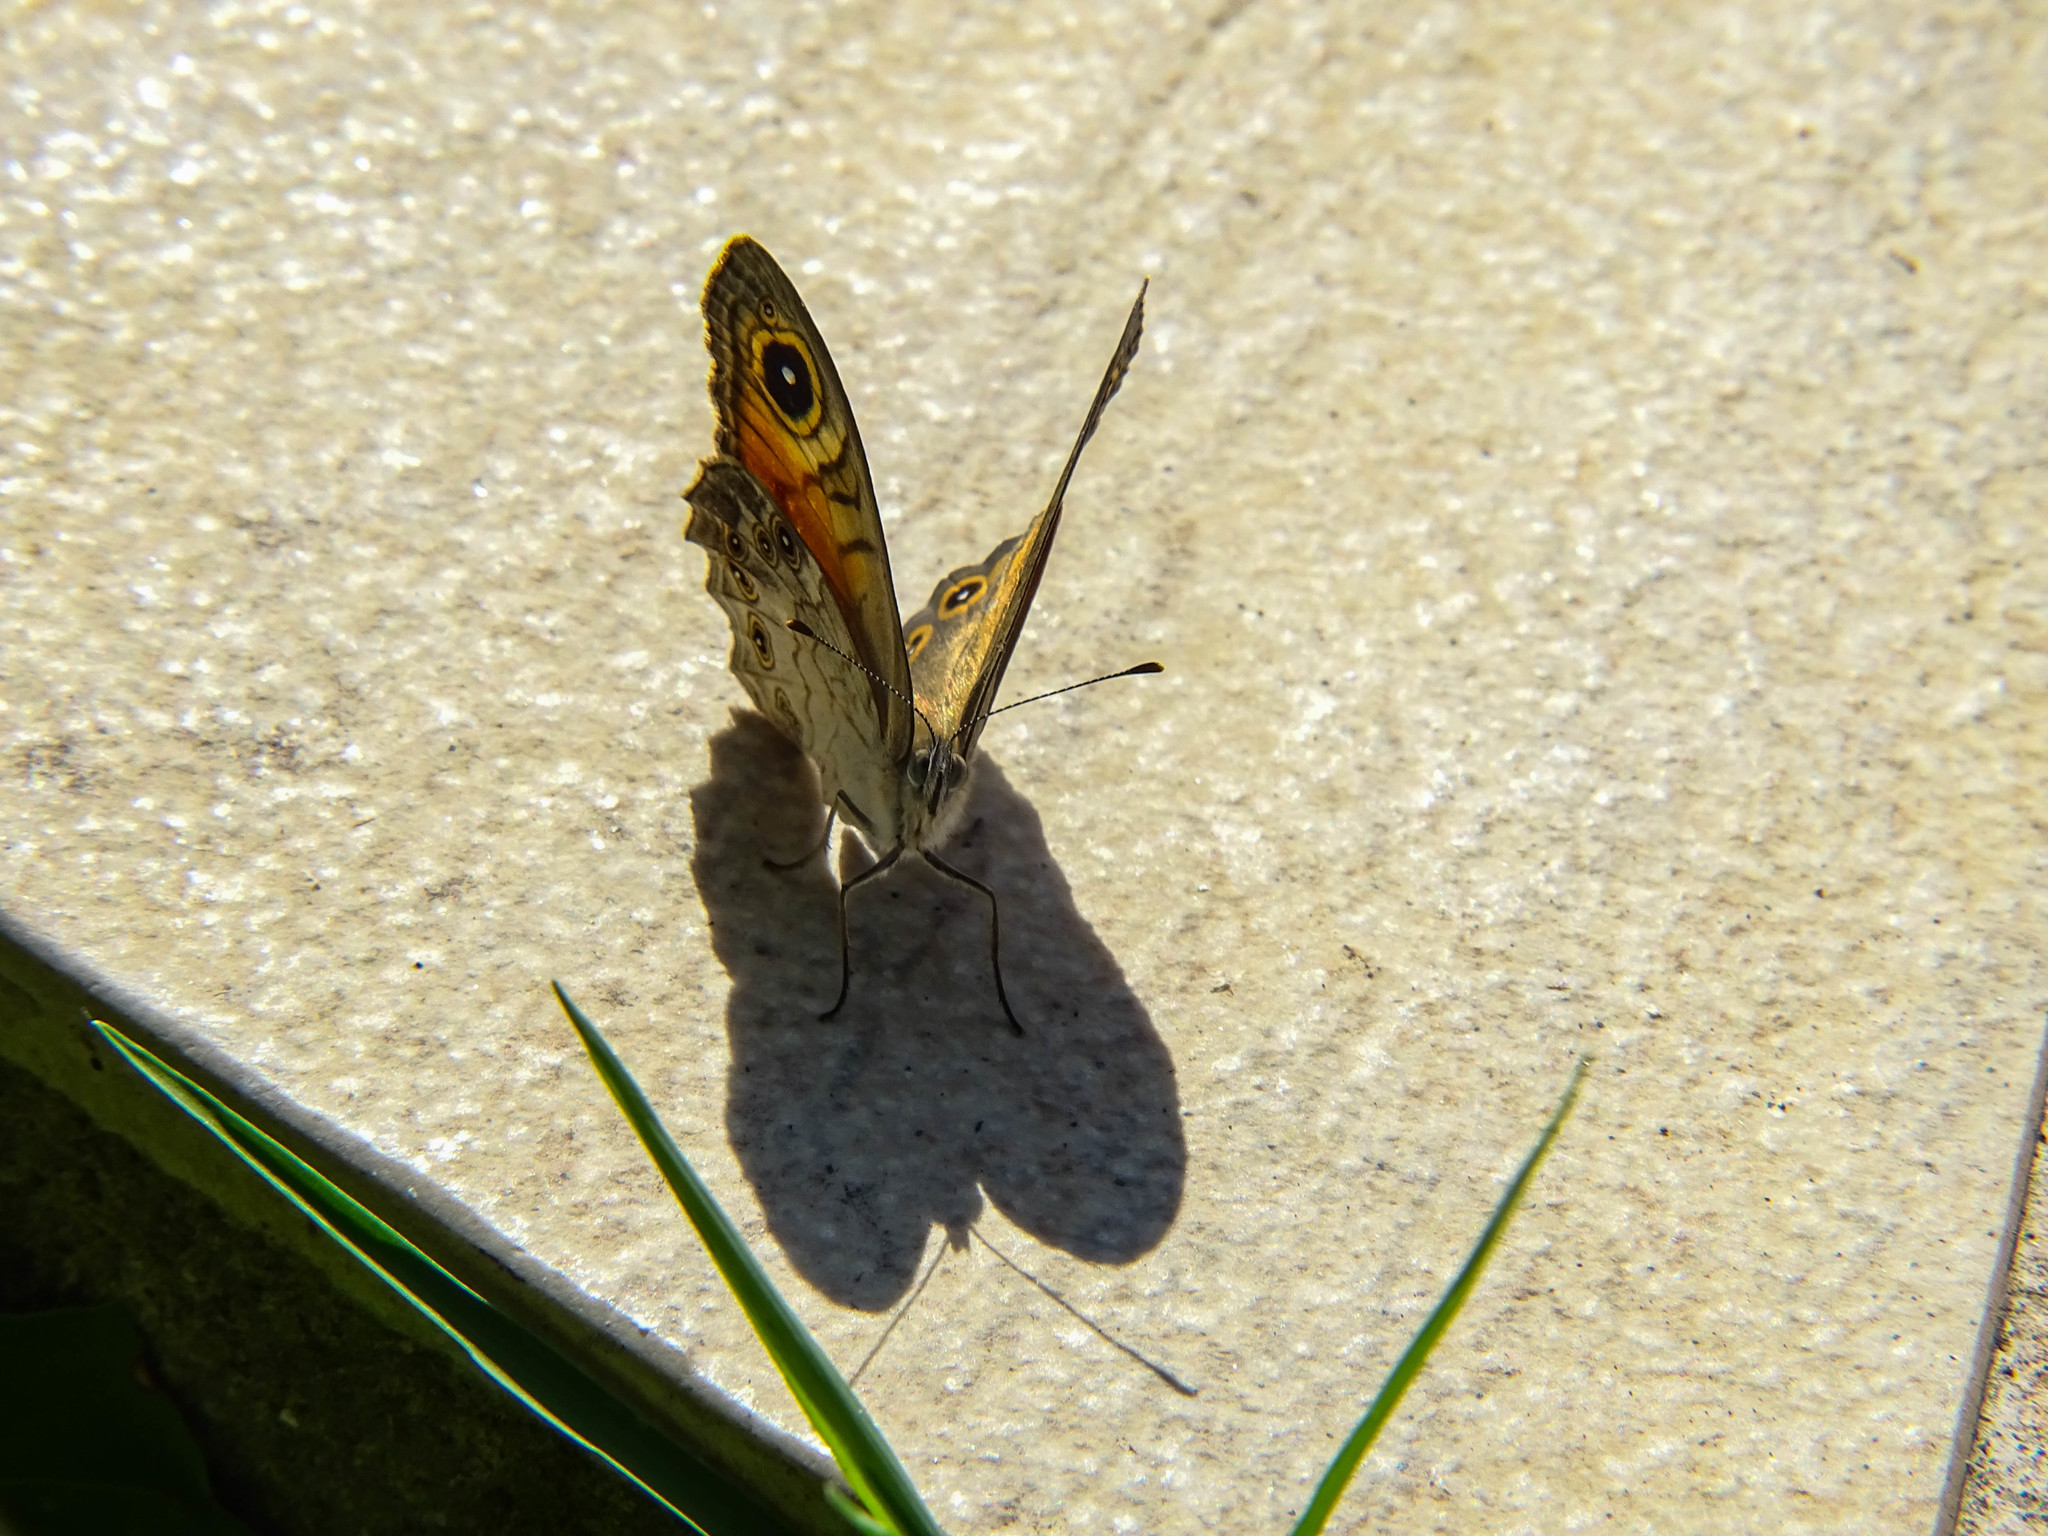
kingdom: Animalia
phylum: Arthropoda
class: Insecta
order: Lepidoptera
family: Nymphalidae
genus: Pararge
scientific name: Pararge Lasiommata maera
